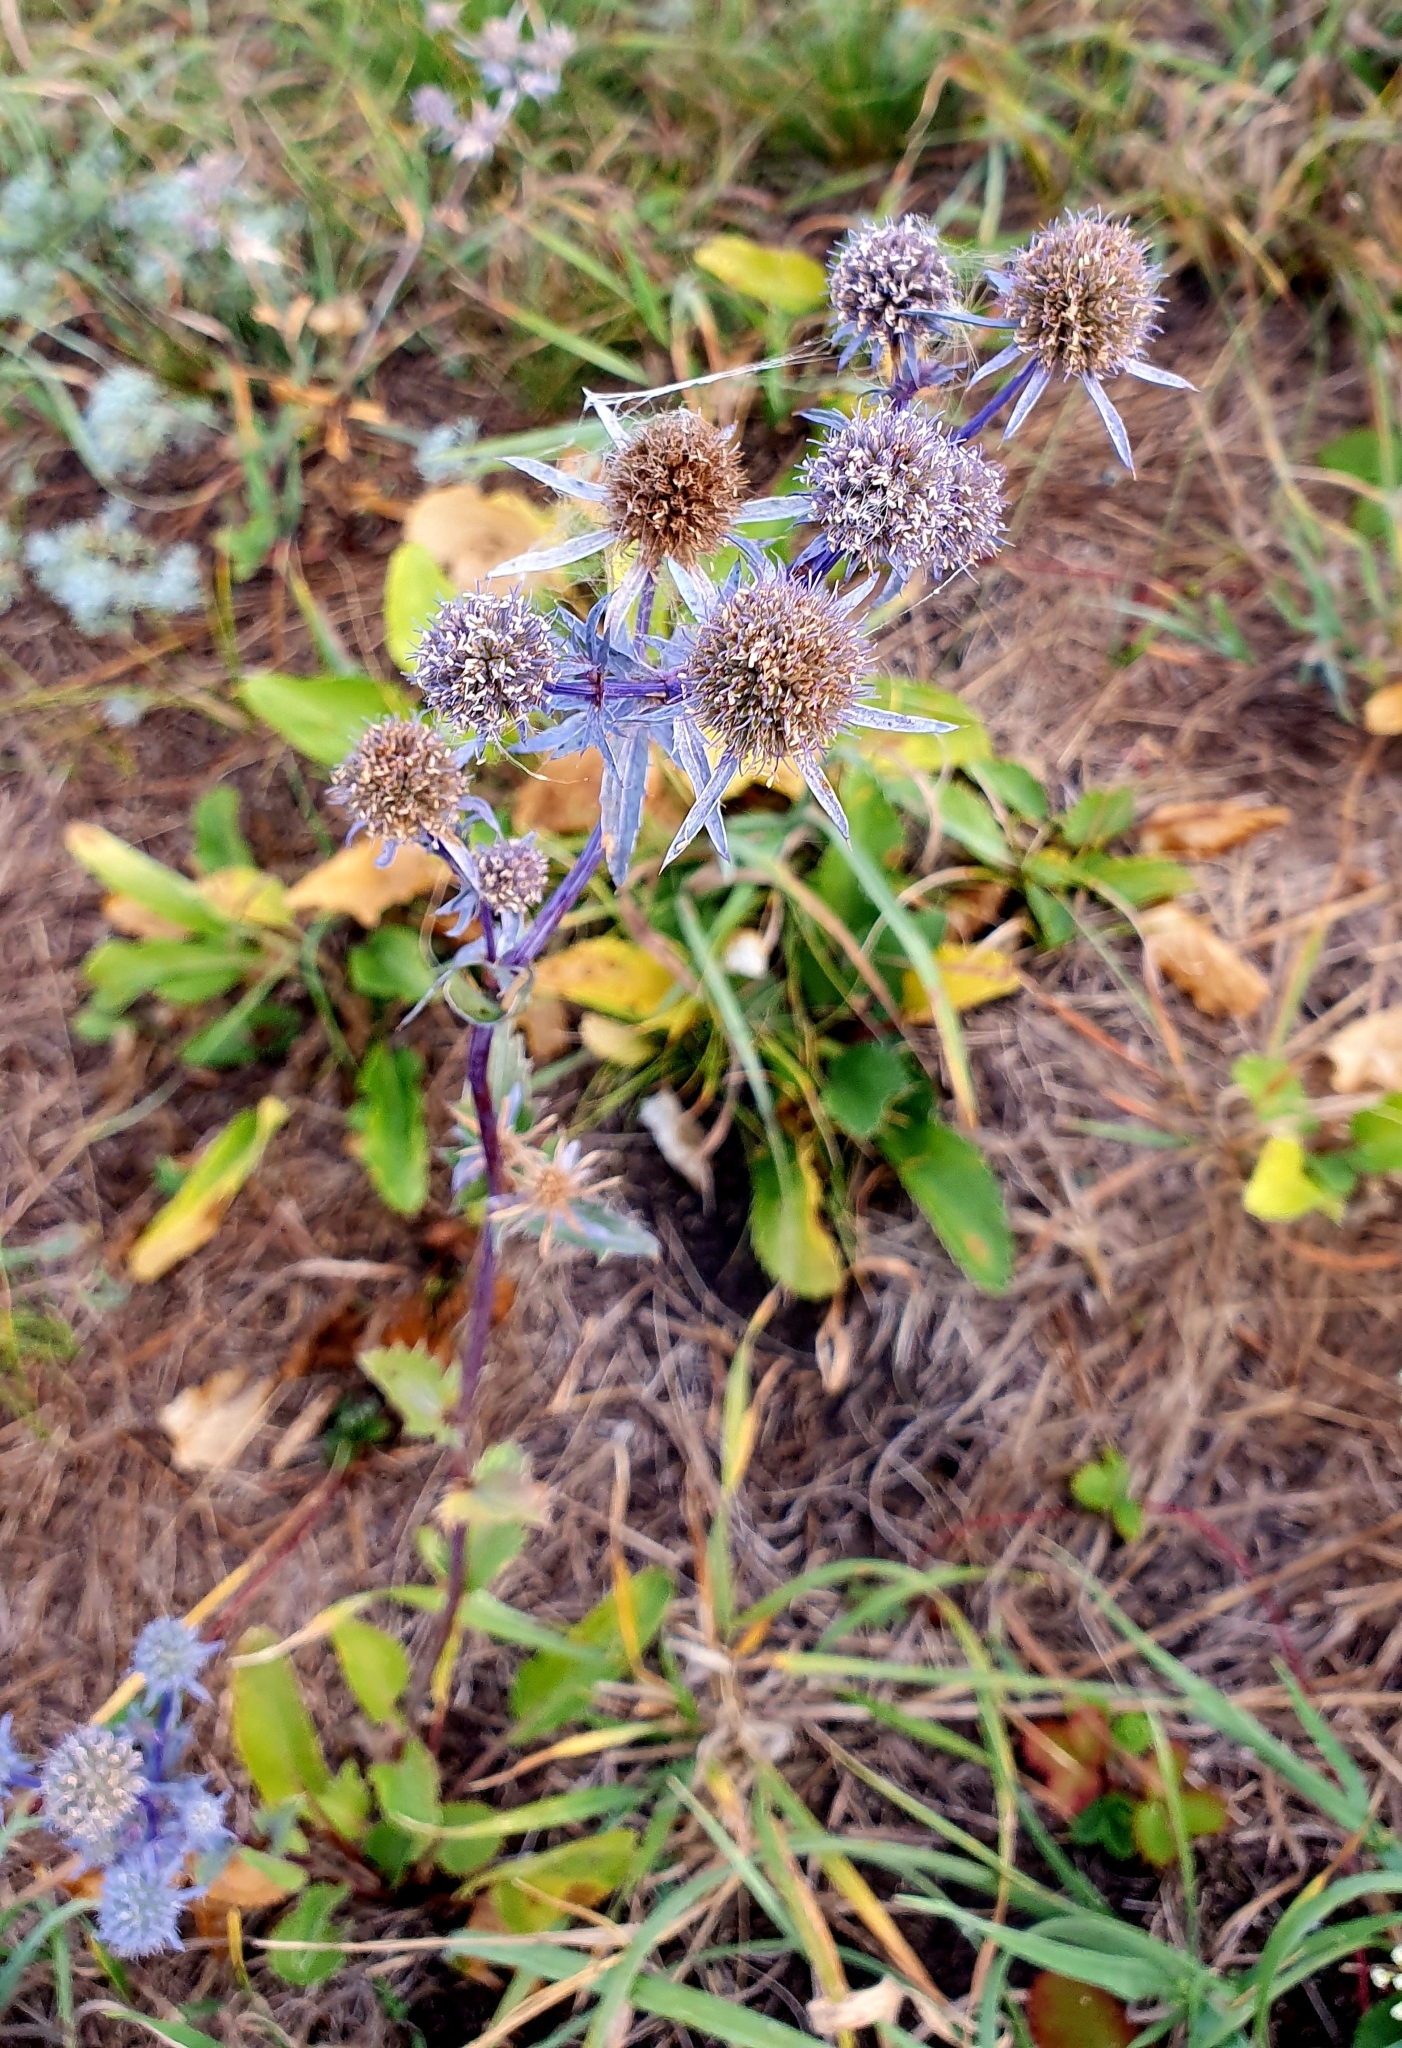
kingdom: Plantae
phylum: Tracheophyta
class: Magnoliopsida
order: Apiales
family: Apiaceae
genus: Eryngium
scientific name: Eryngium planum
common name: Blue eryngo
